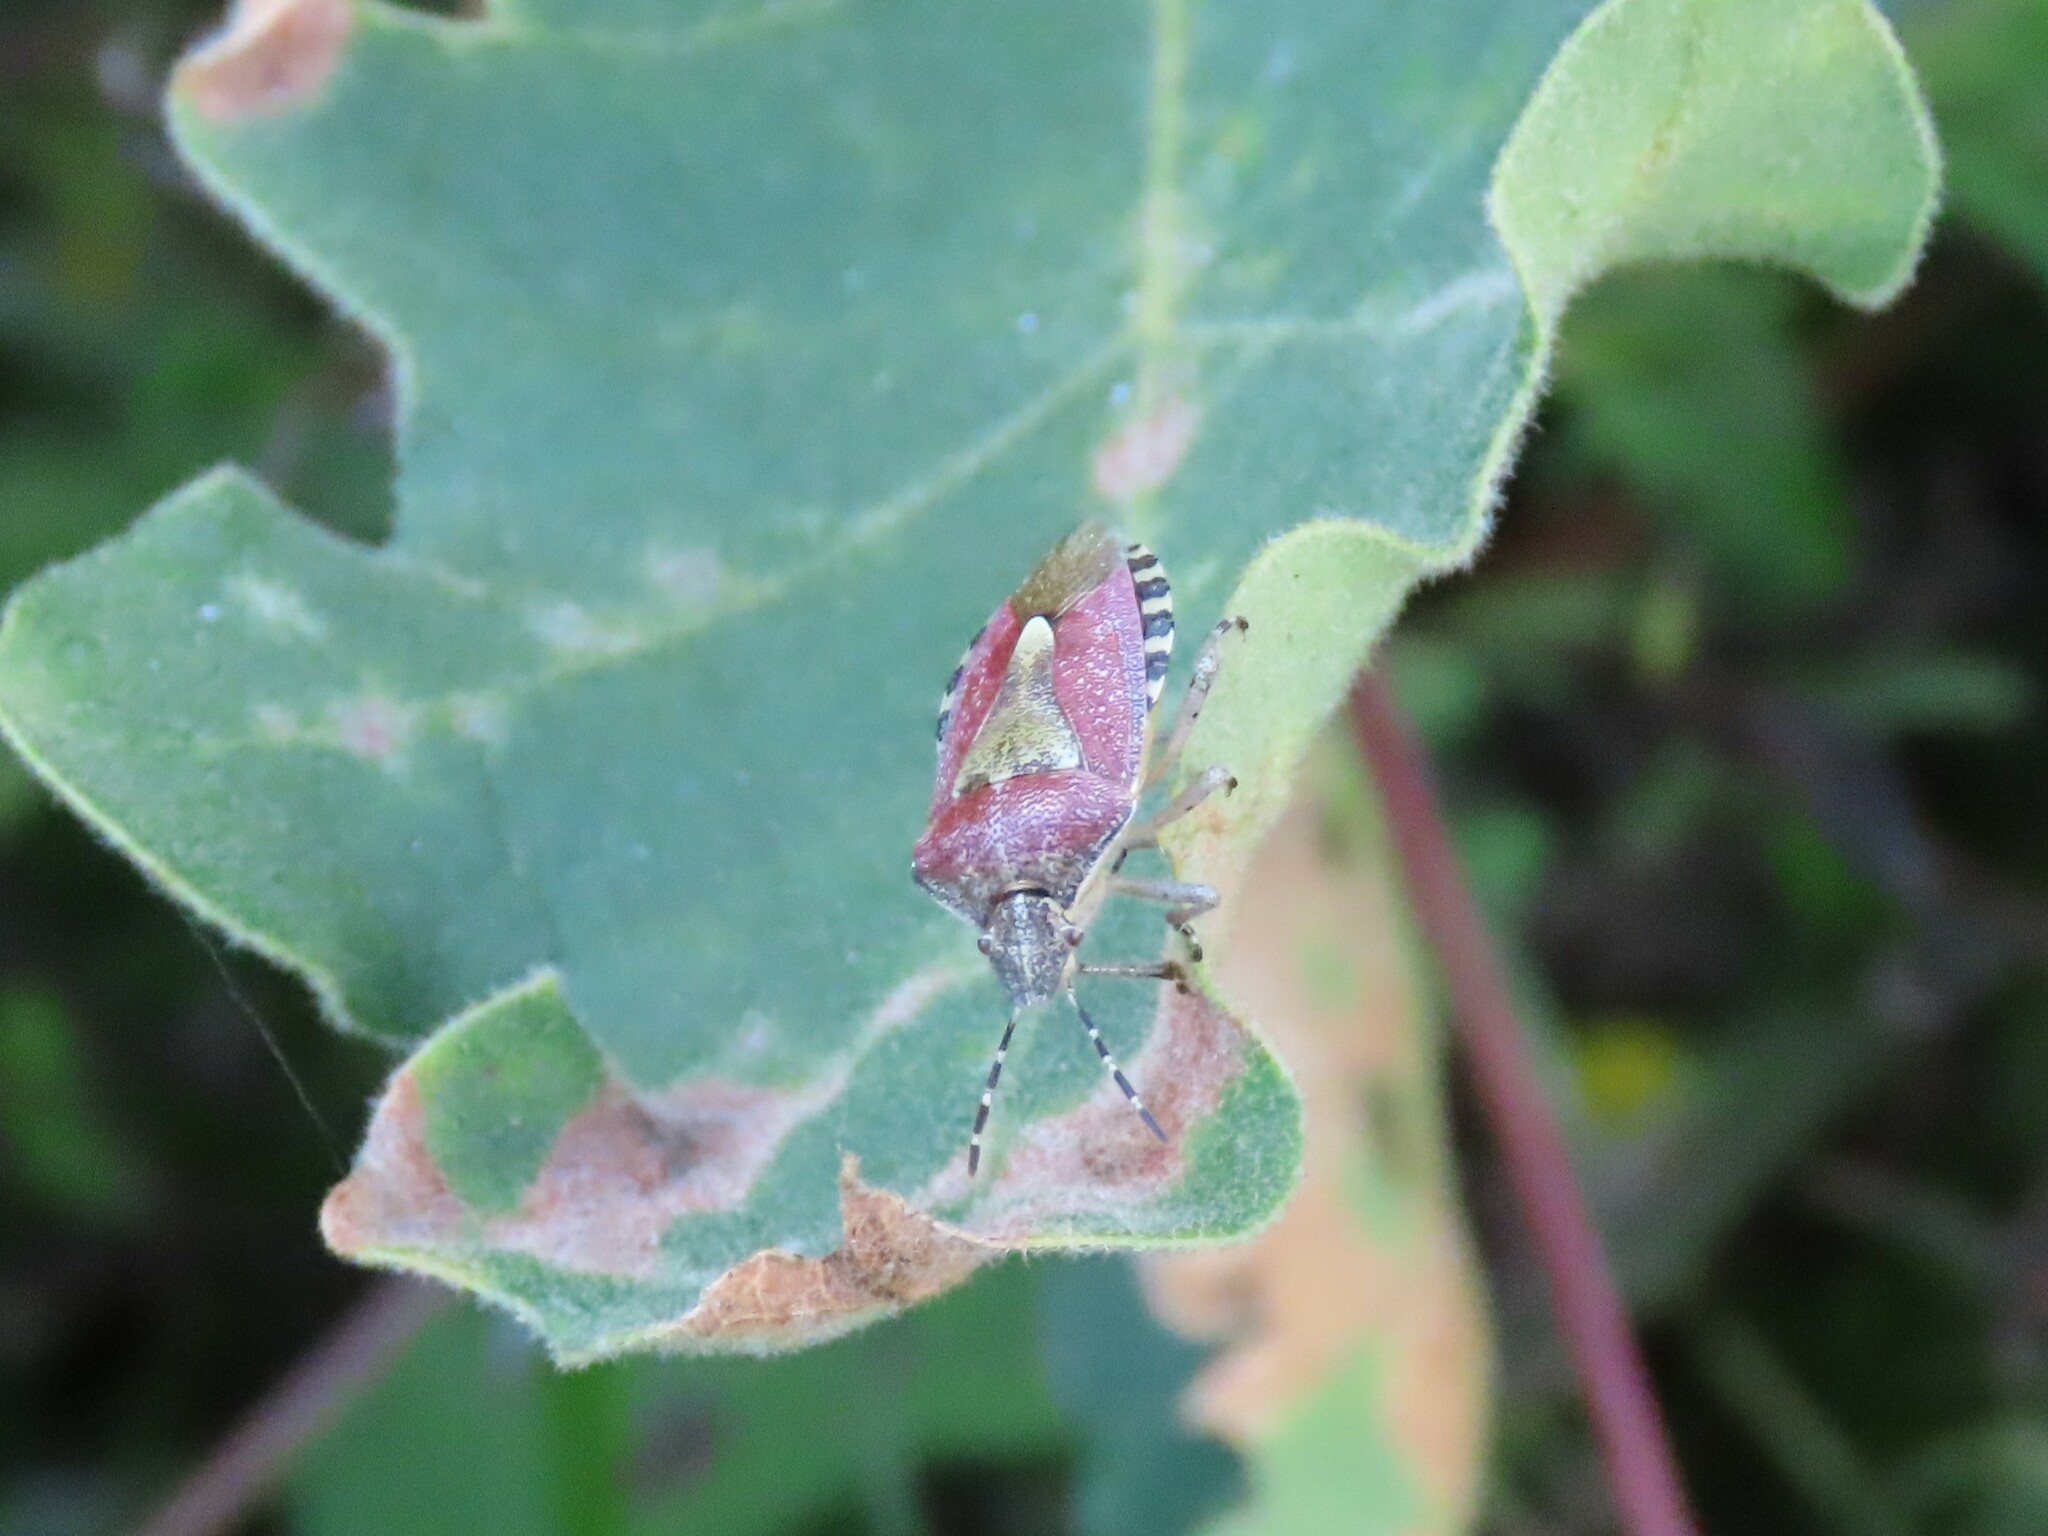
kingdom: Animalia
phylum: Arthropoda
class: Insecta
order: Hemiptera
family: Pentatomidae
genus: Dolycoris
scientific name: Dolycoris baccarum
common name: Sloe bug
